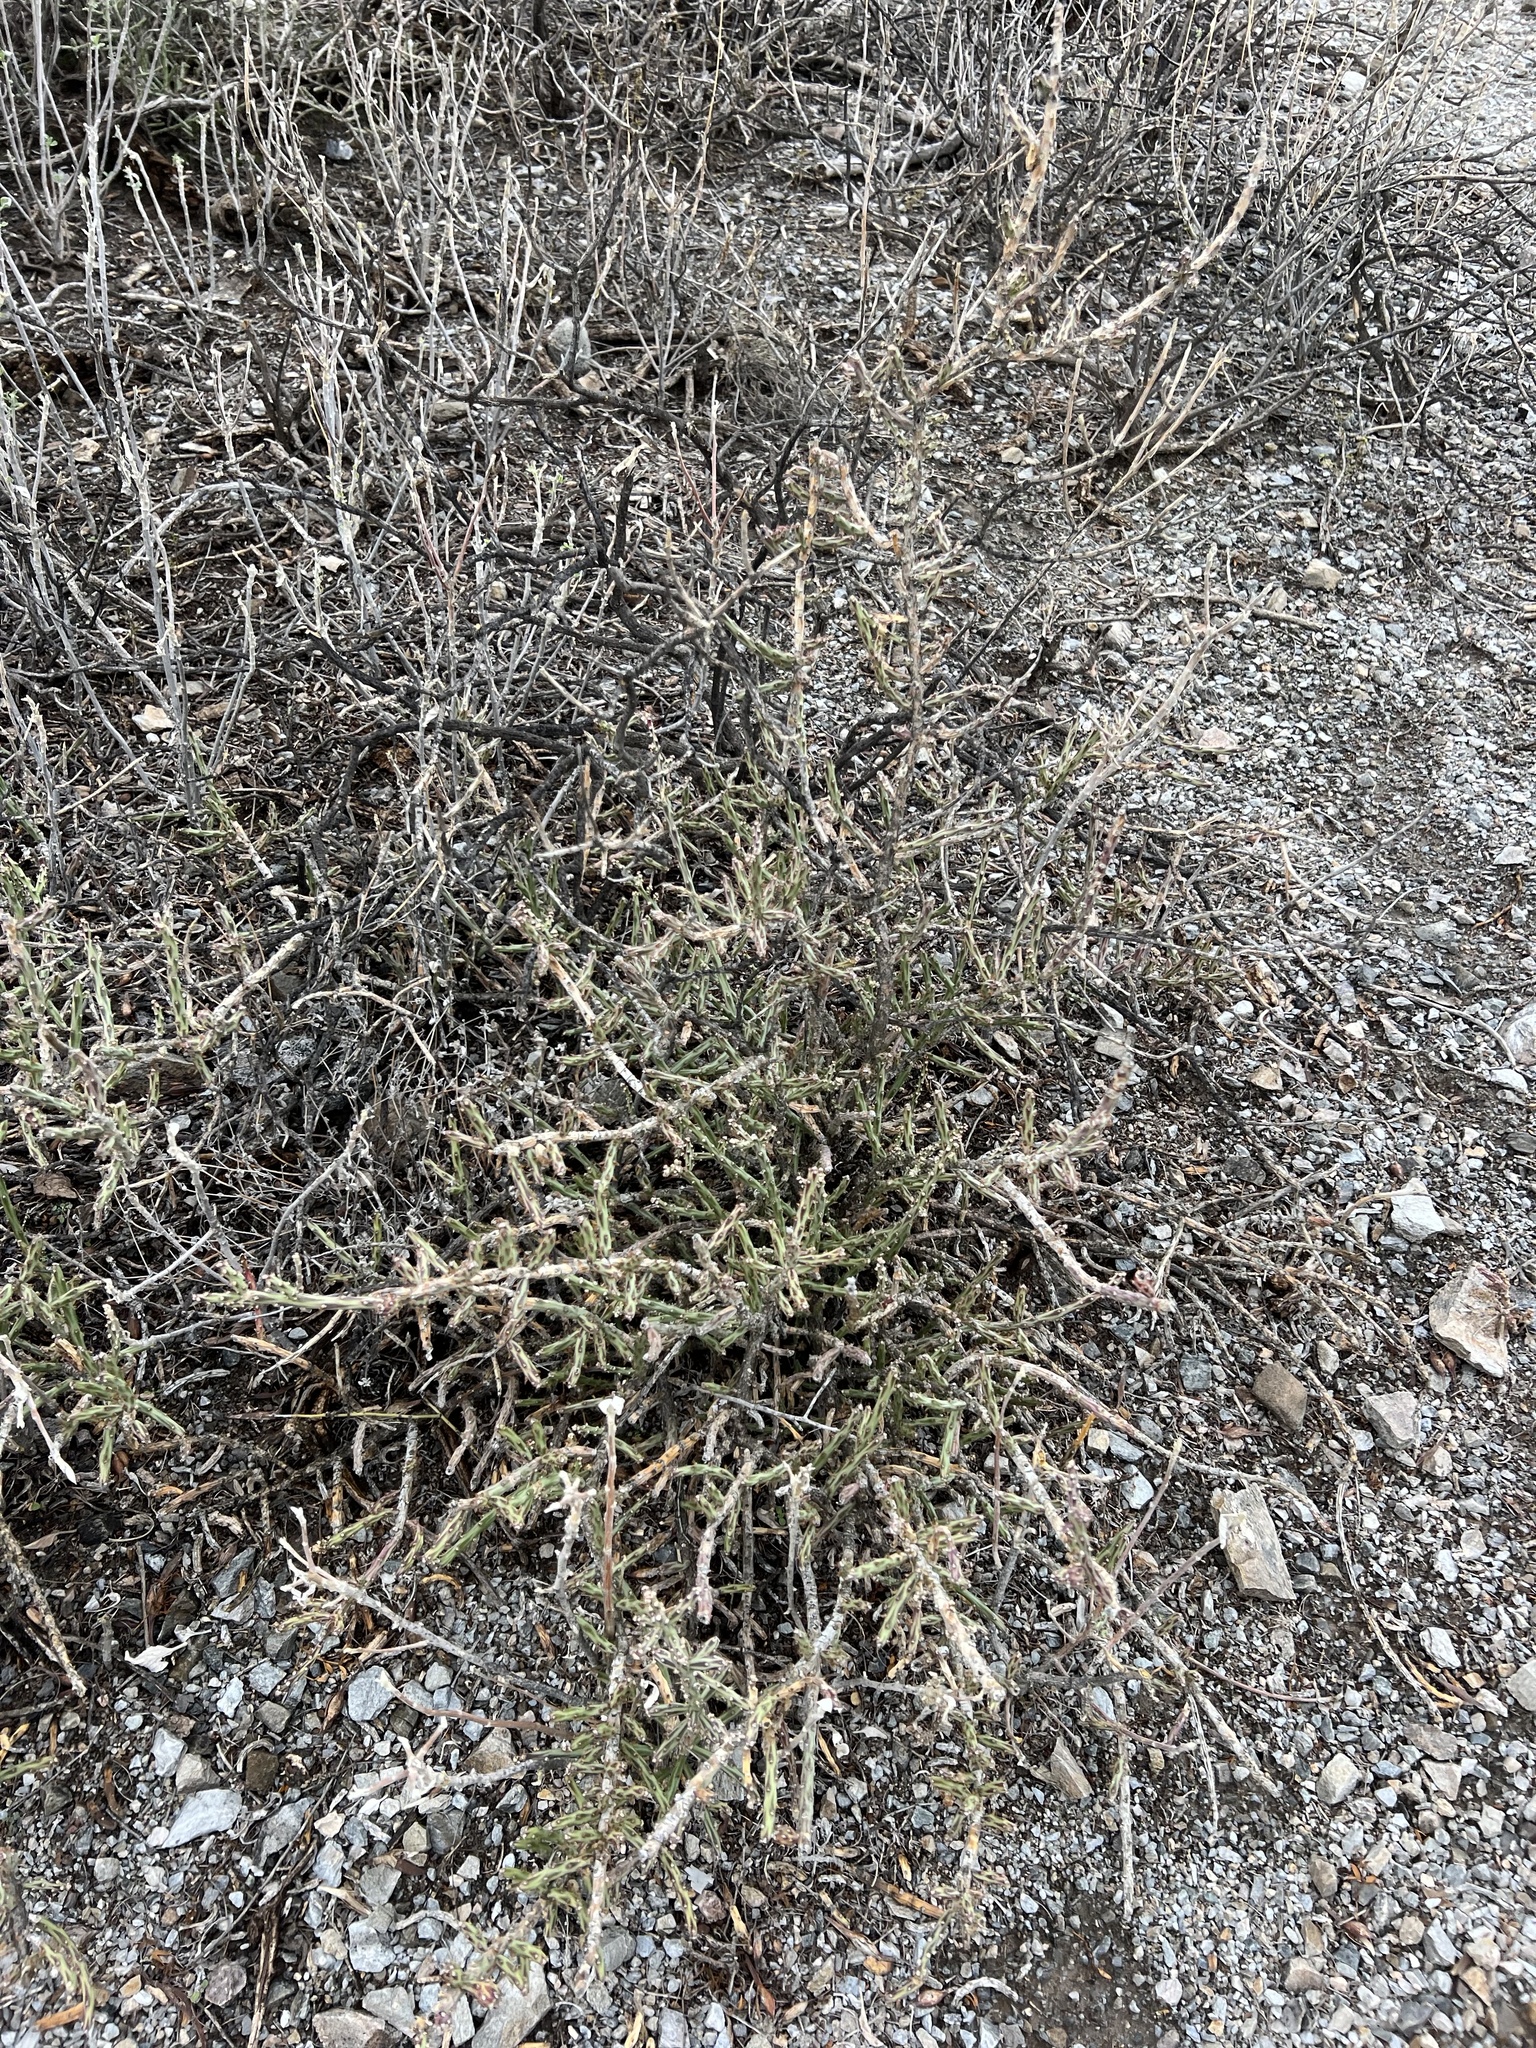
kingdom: Plantae
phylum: Tracheophyta
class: Magnoliopsida
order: Caryophyllales
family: Cactaceae
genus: Cylindropuntia
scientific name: Cylindropuntia leptocaulis
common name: Christmas cactus
